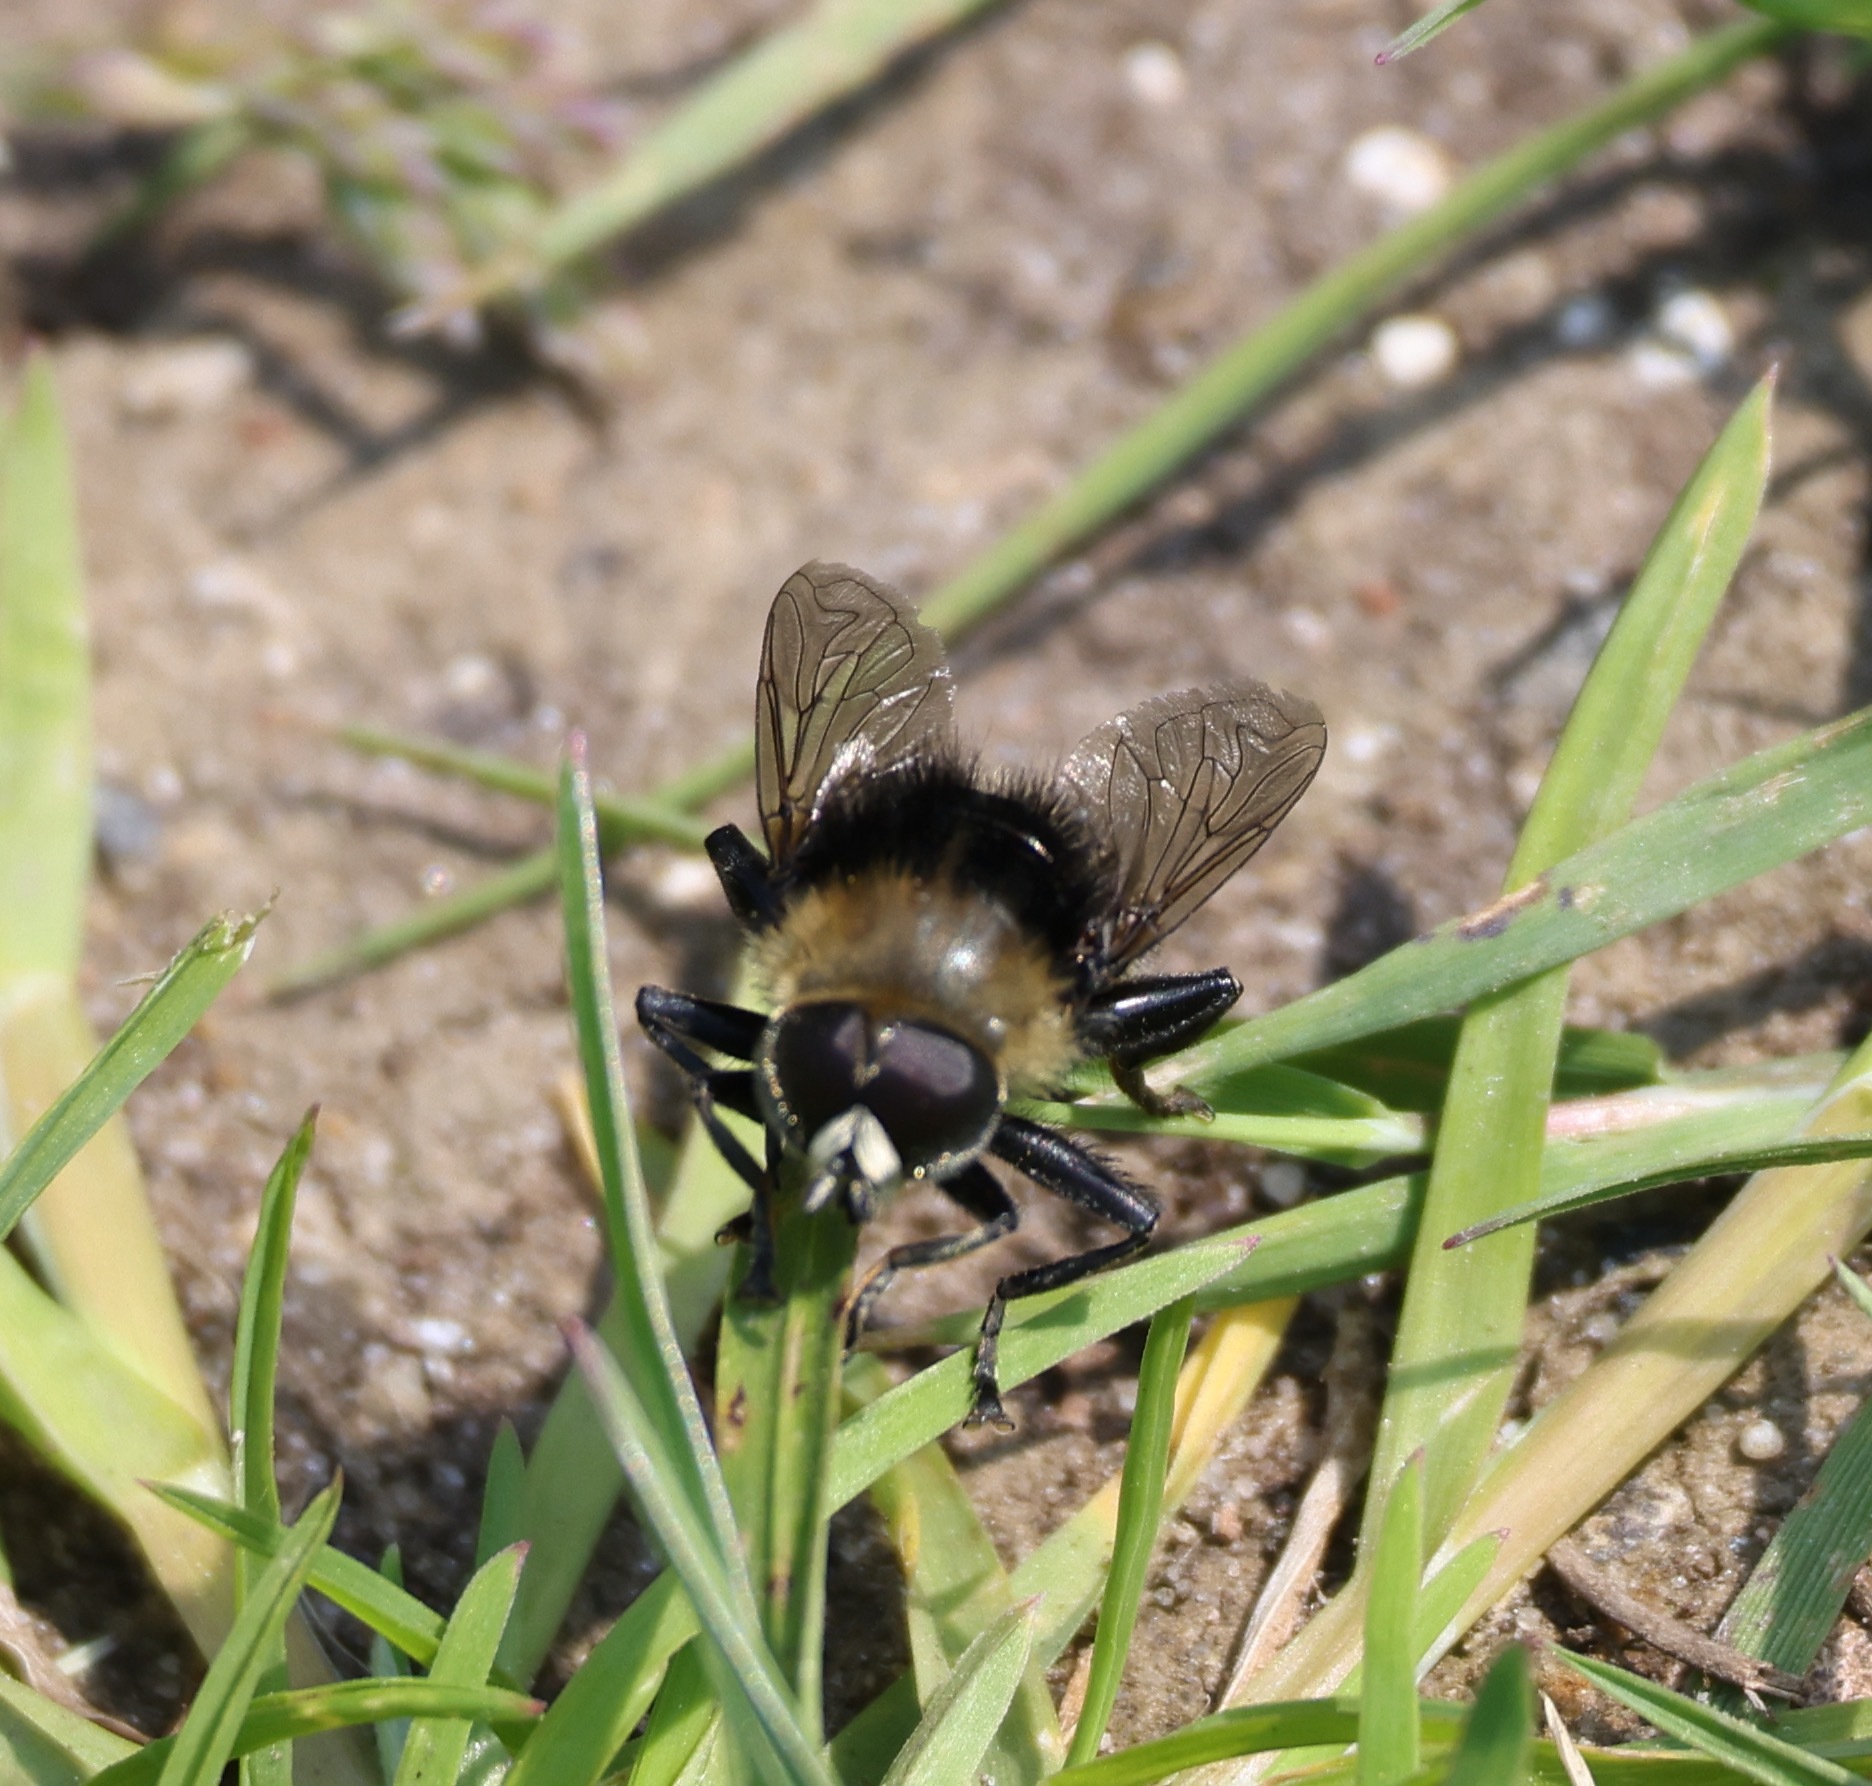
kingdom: Animalia
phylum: Arthropoda
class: Insecta
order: Diptera
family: Syrphidae
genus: Merodon
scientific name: Merodon equestris
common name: Greater bulb-fly
